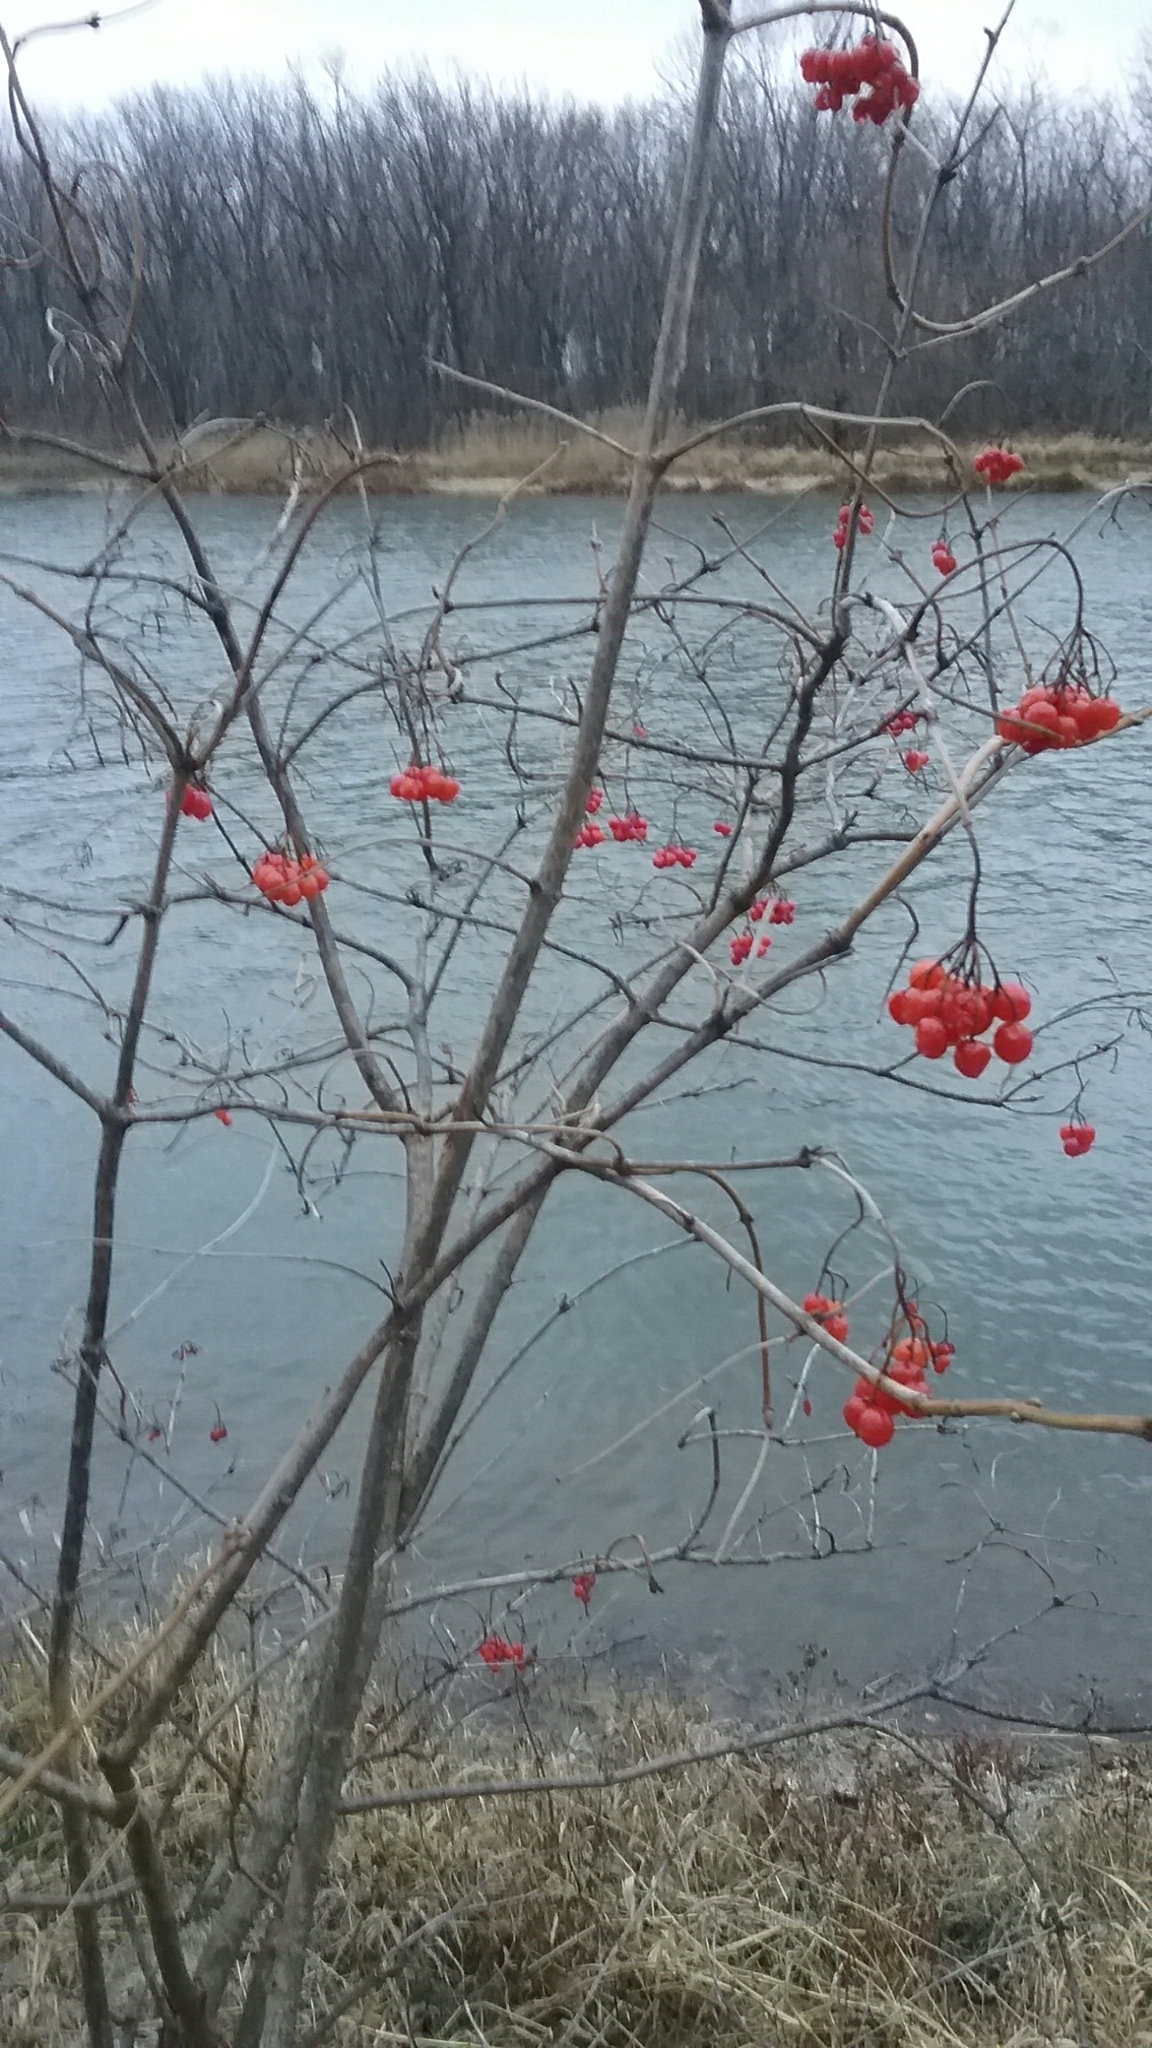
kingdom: Plantae
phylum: Tracheophyta
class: Magnoliopsida
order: Dipsacales
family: Viburnaceae
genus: Viburnum
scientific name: Viburnum opulus
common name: Guelder-rose
